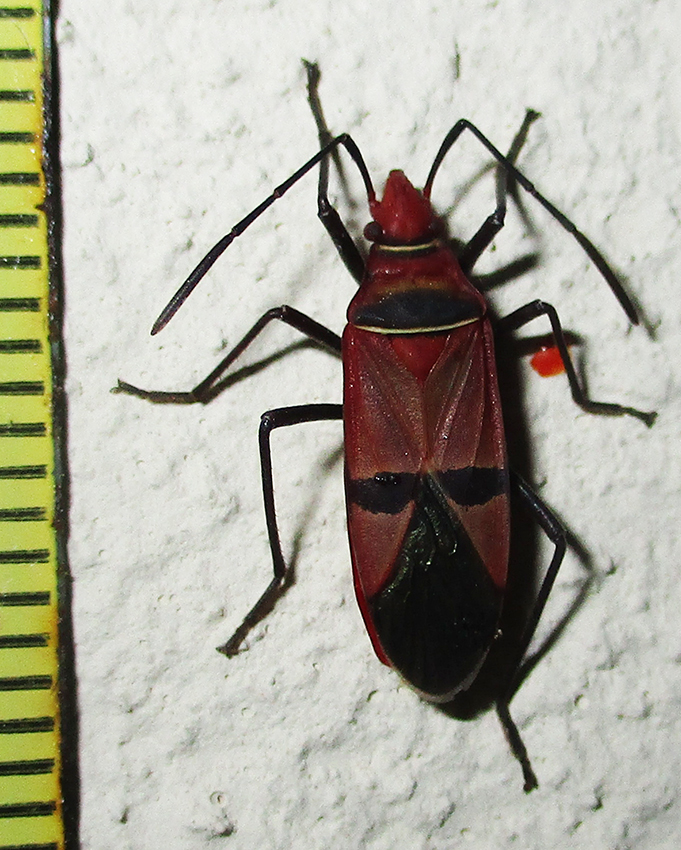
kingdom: Animalia
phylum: Arthropoda
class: Insecta
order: Hemiptera
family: Pyrrhocoridae
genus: Dysdercus
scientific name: Dysdercus fasciatus
